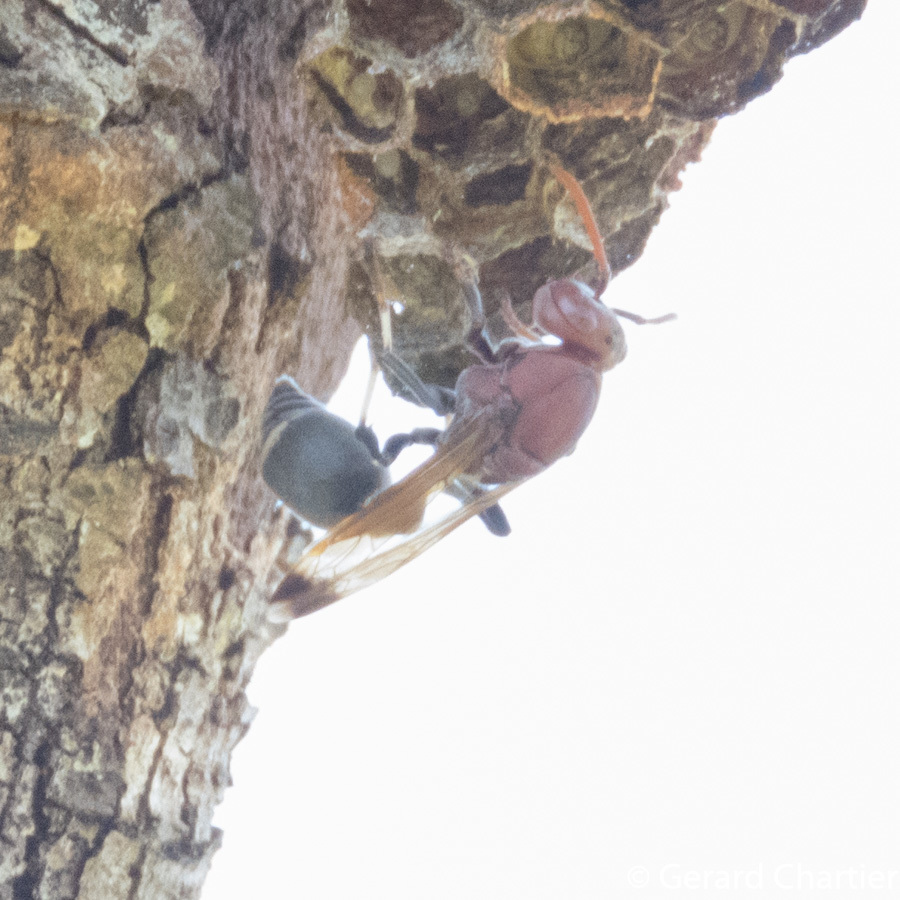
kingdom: Animalia
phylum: Arthropoda
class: Insecta
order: Hymenoptera
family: Vespidae
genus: Ropalidia
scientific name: Ropalidia magnanima
